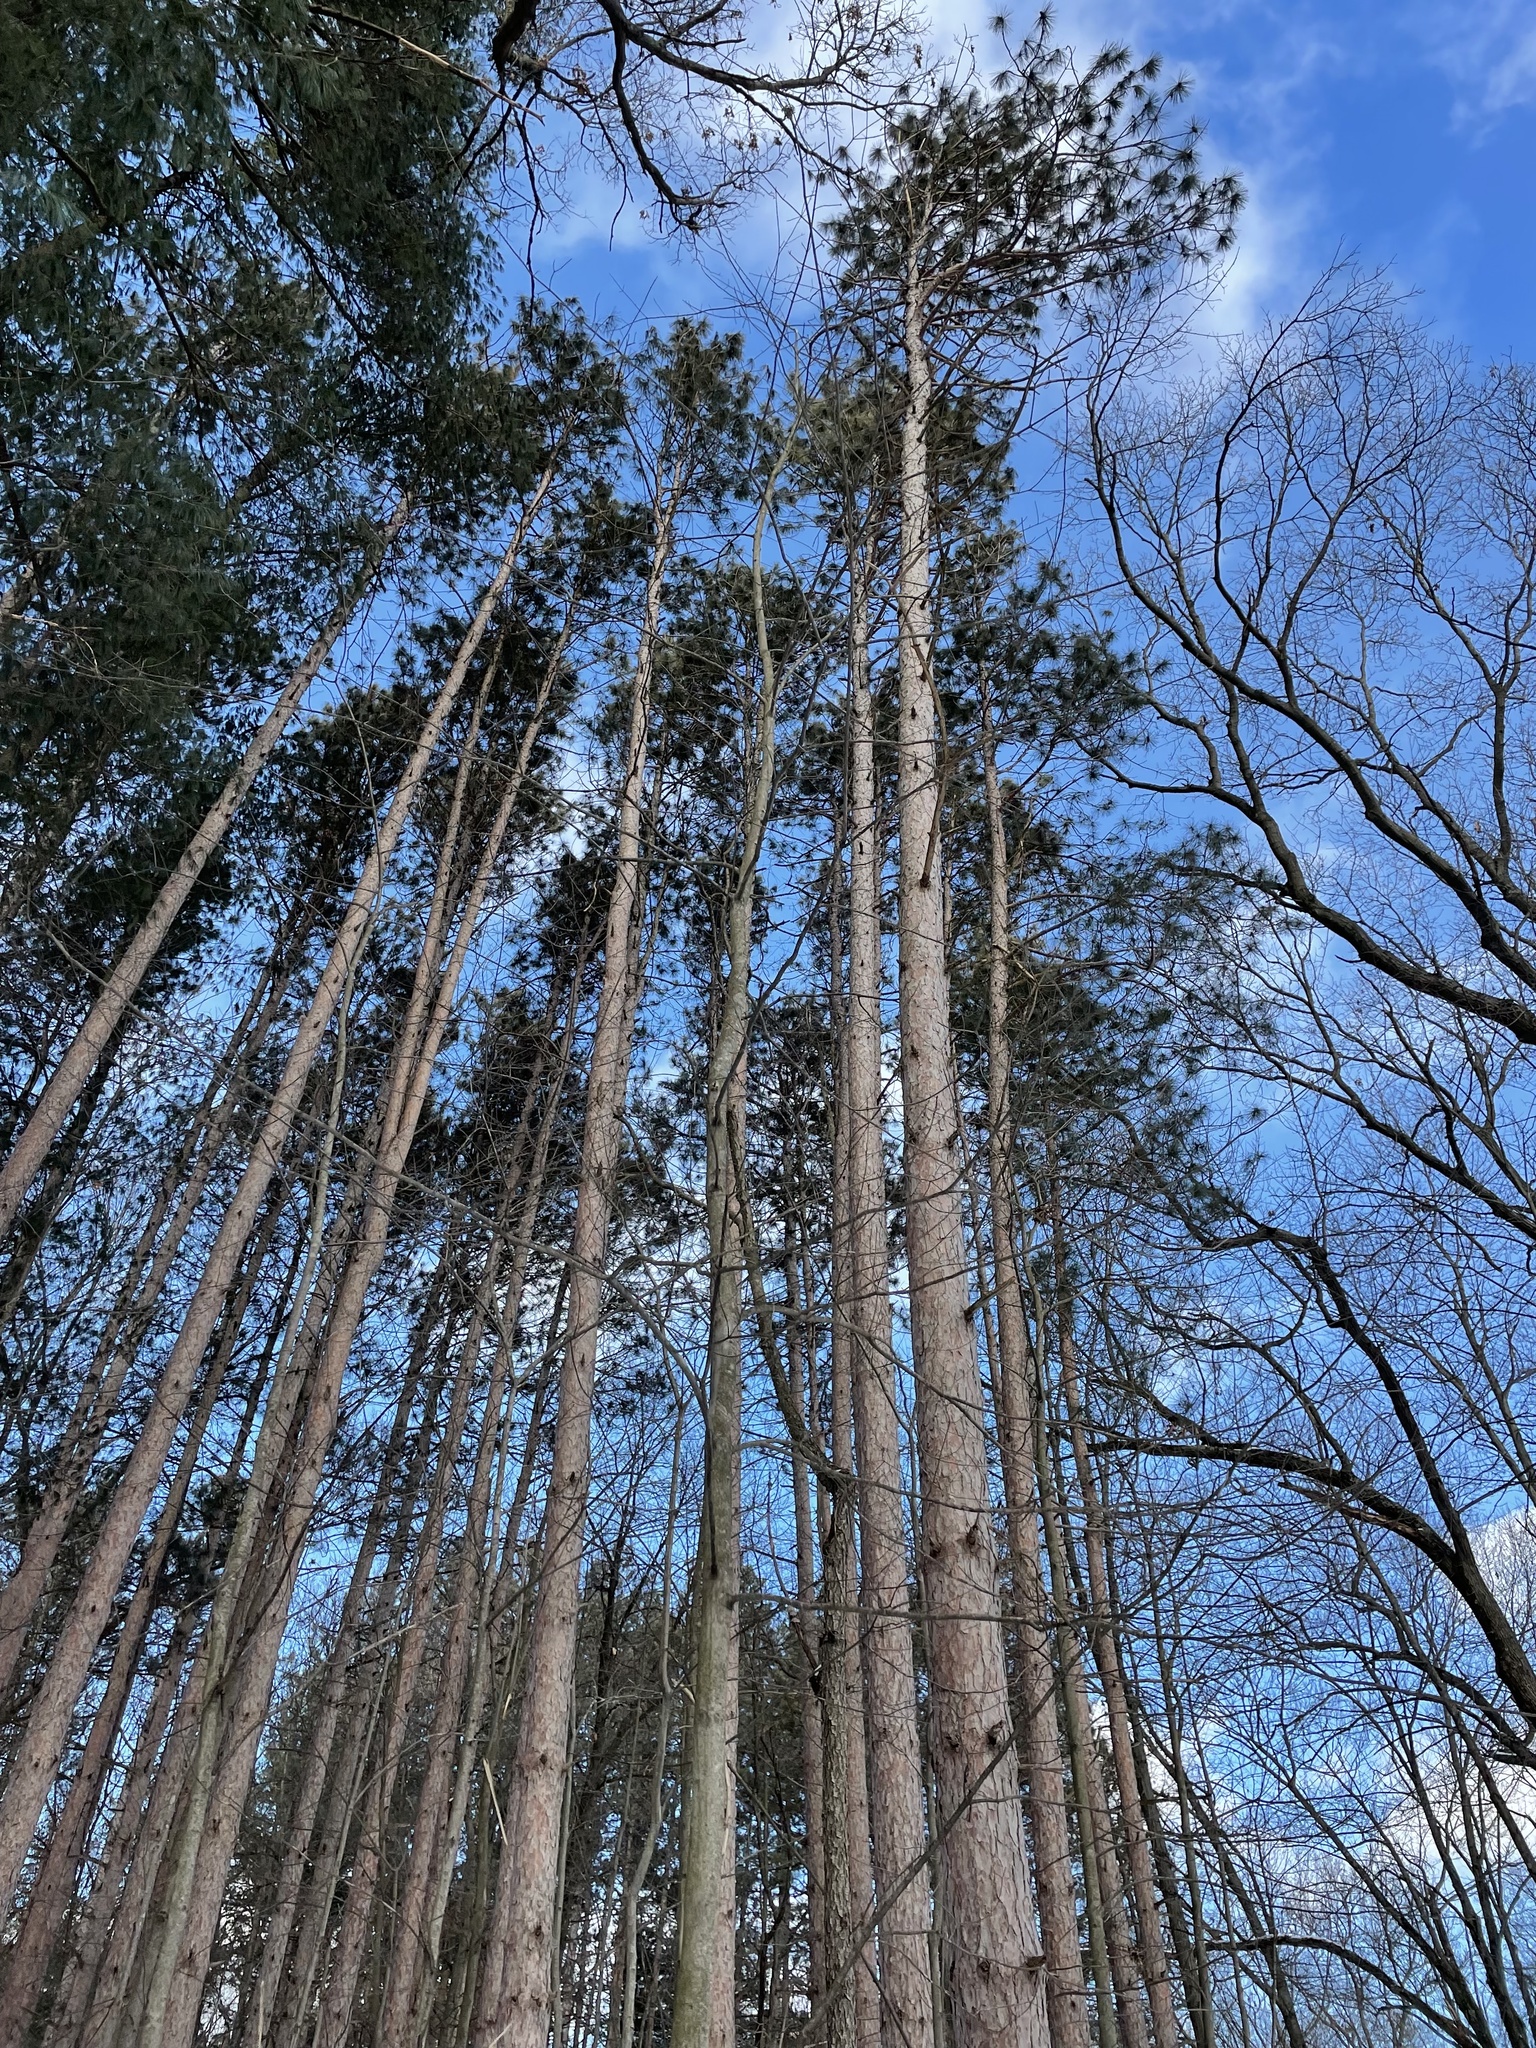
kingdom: Plantae
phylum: Tracheophyta
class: Pinopsida
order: Pinales
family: Pinaceae
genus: Pinus
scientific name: Pinus resinosa
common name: Norway pine
